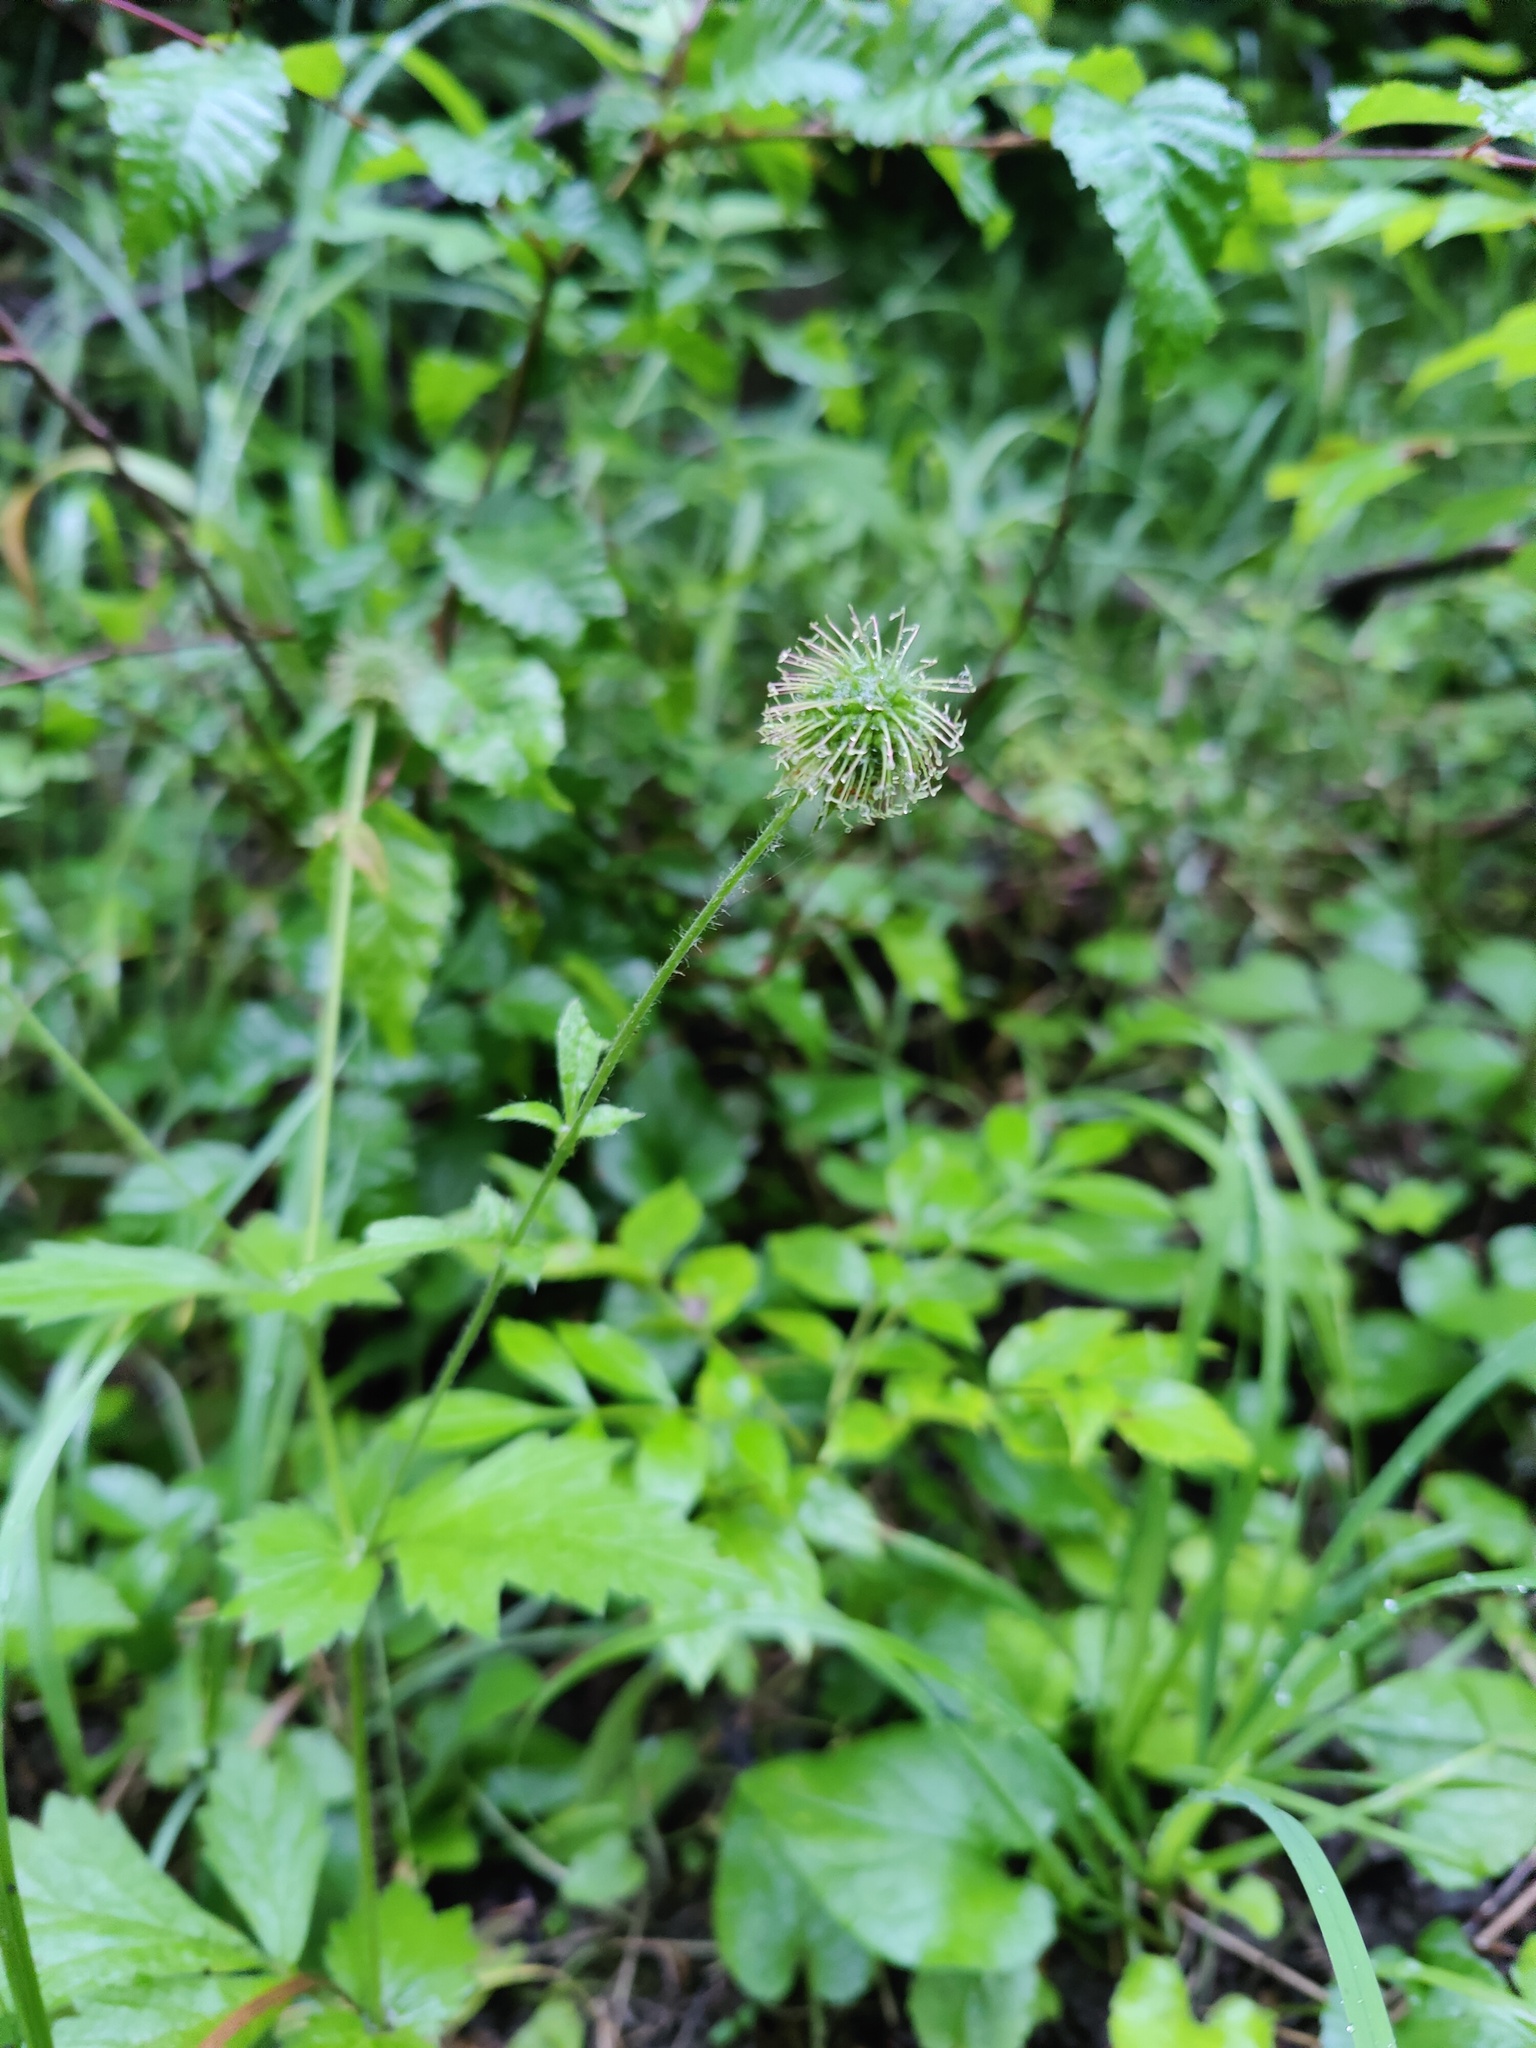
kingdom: Plantae
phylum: Tracheophyta
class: Magnoliopsida
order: Rosales
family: Rosaceae
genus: Geum
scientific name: Geum urbanum
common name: Wood avens
